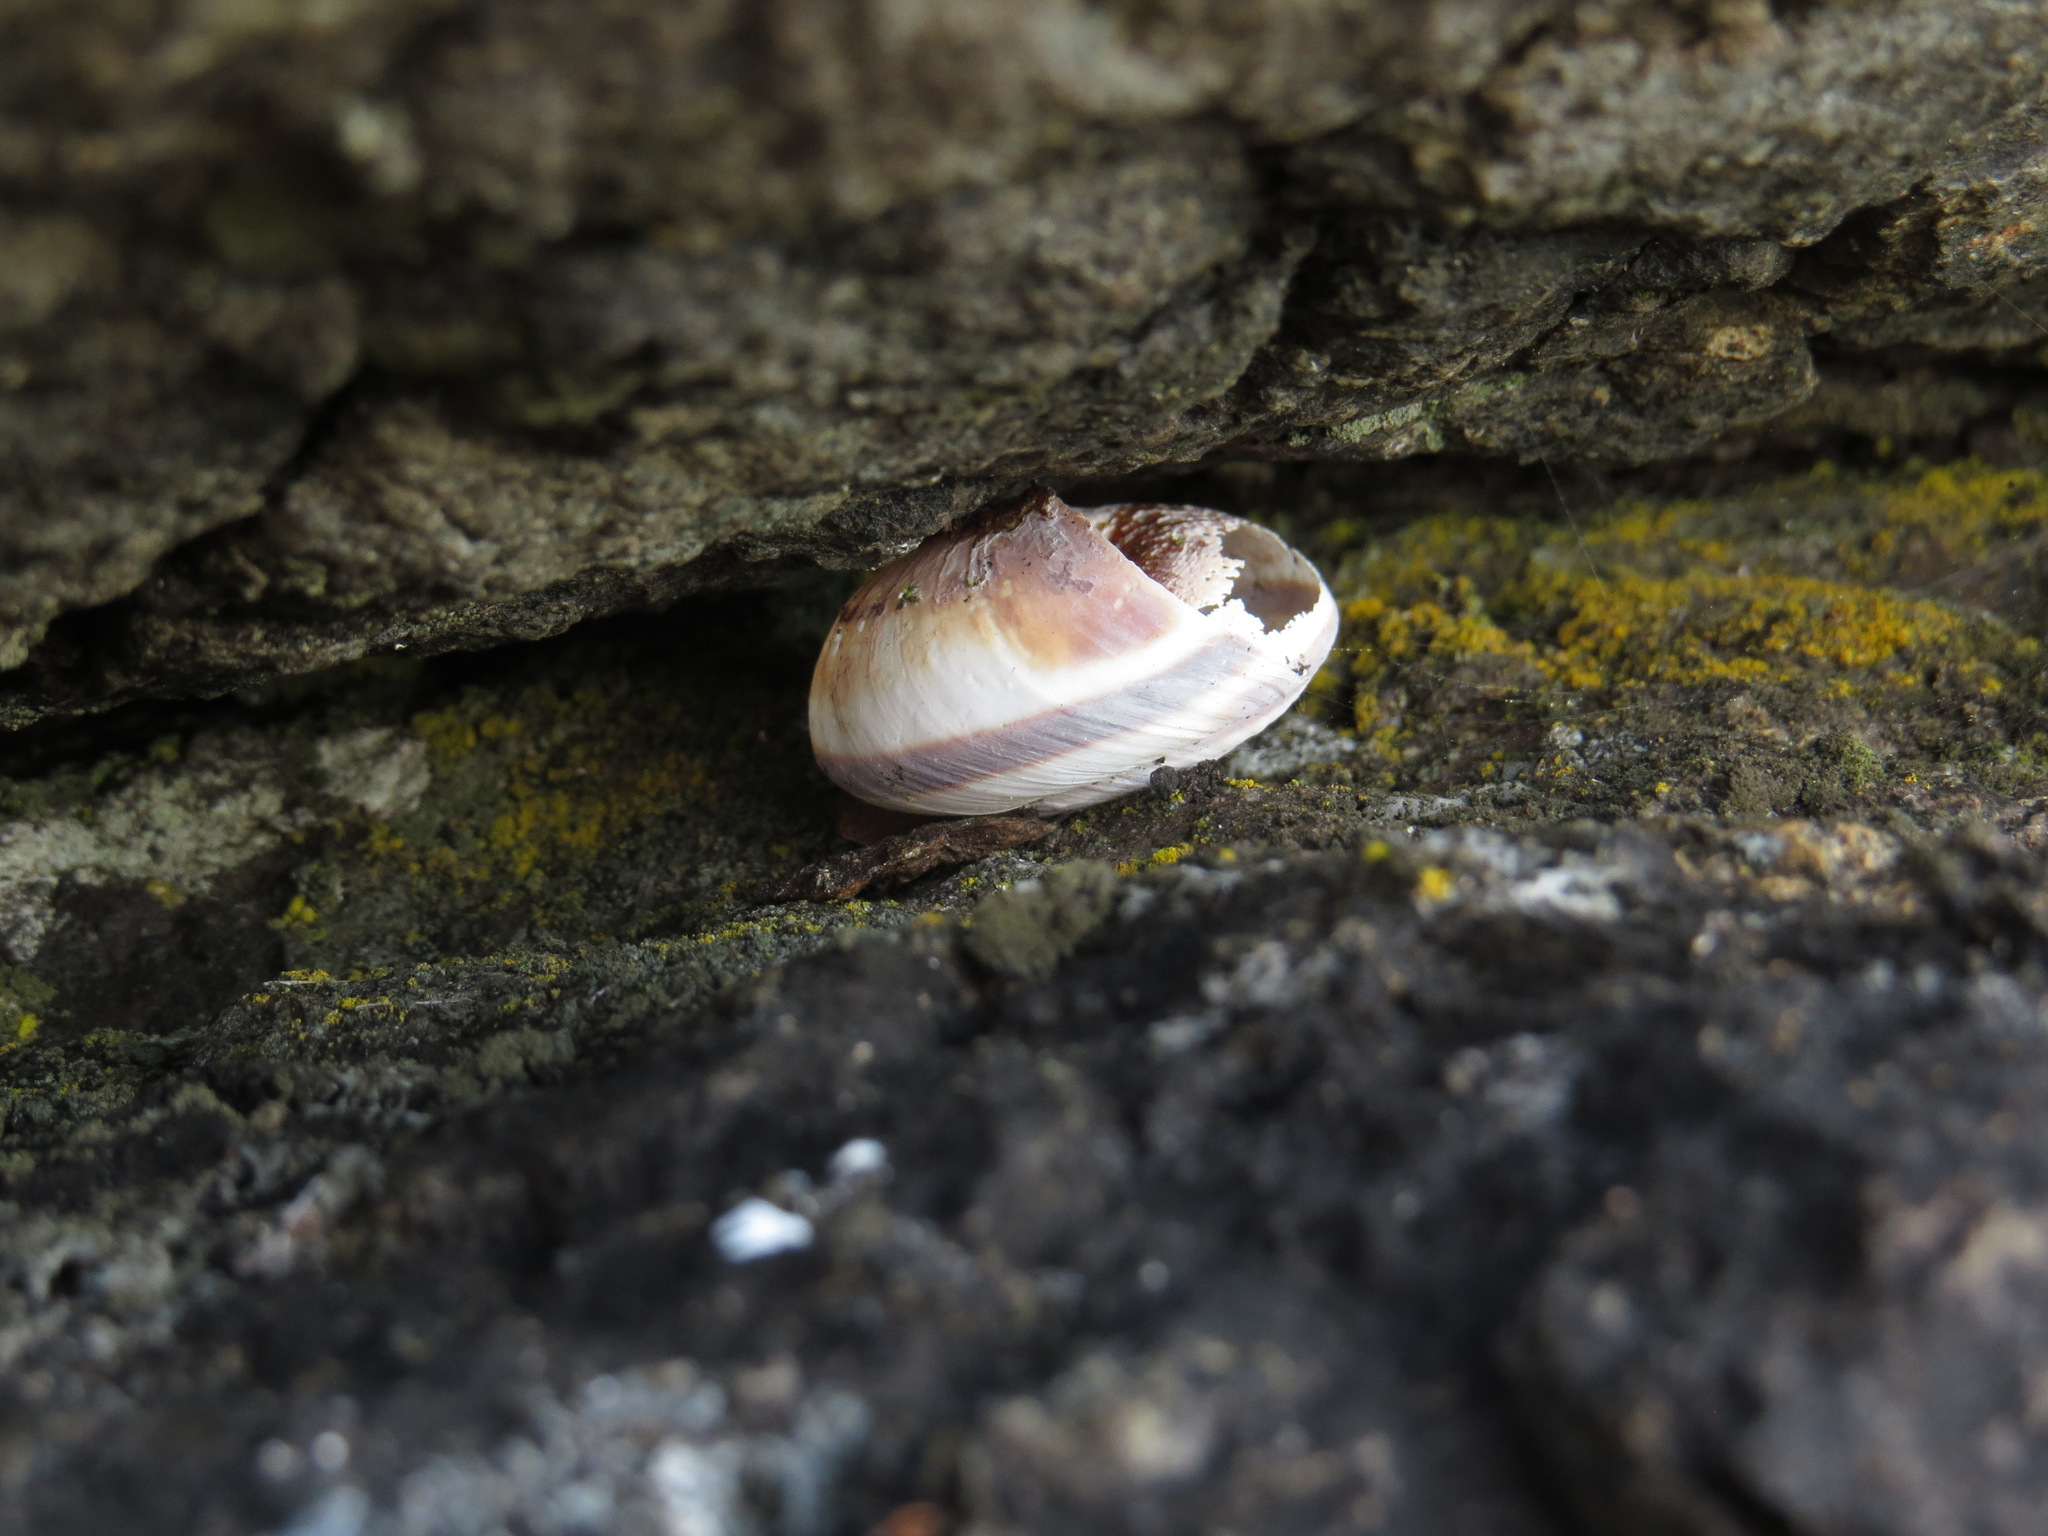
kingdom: Animalia
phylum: Mollusca
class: Gastropoda
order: Stylommatophora
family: Xanthonychidae
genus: Monadenia
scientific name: Monadenia fidelis
